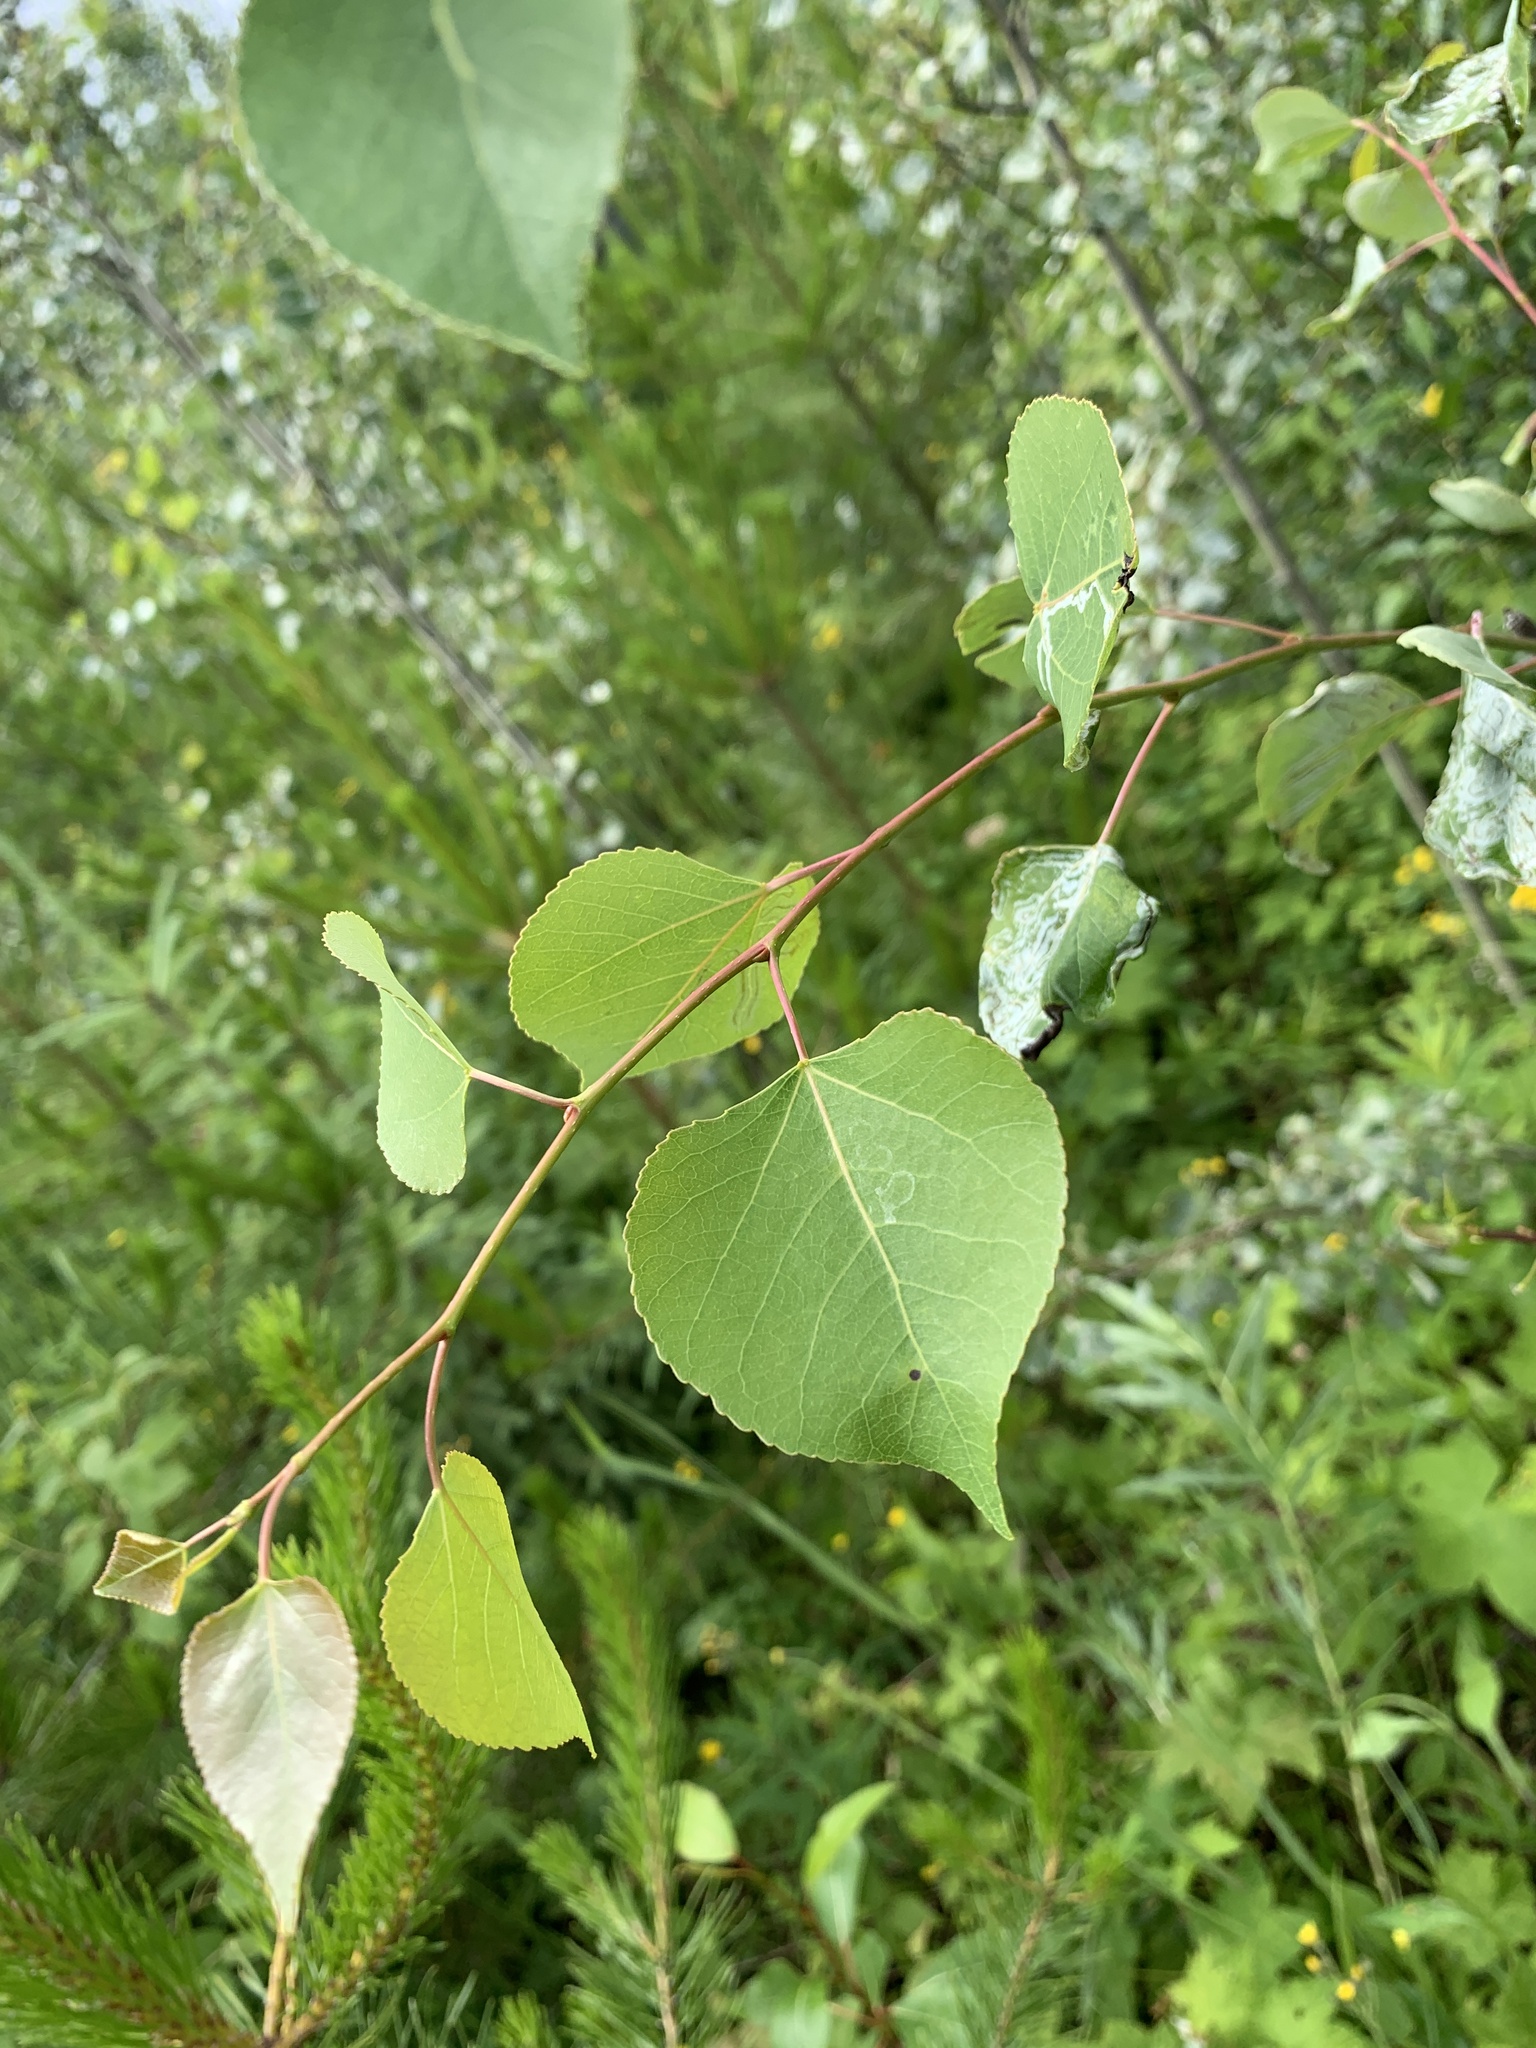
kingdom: Plantae
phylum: Tracheophyta
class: Magnoliopsida
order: Malpighiales
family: Salicaceae
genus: Populus
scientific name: Populus tremuloides
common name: Quaking aspen
